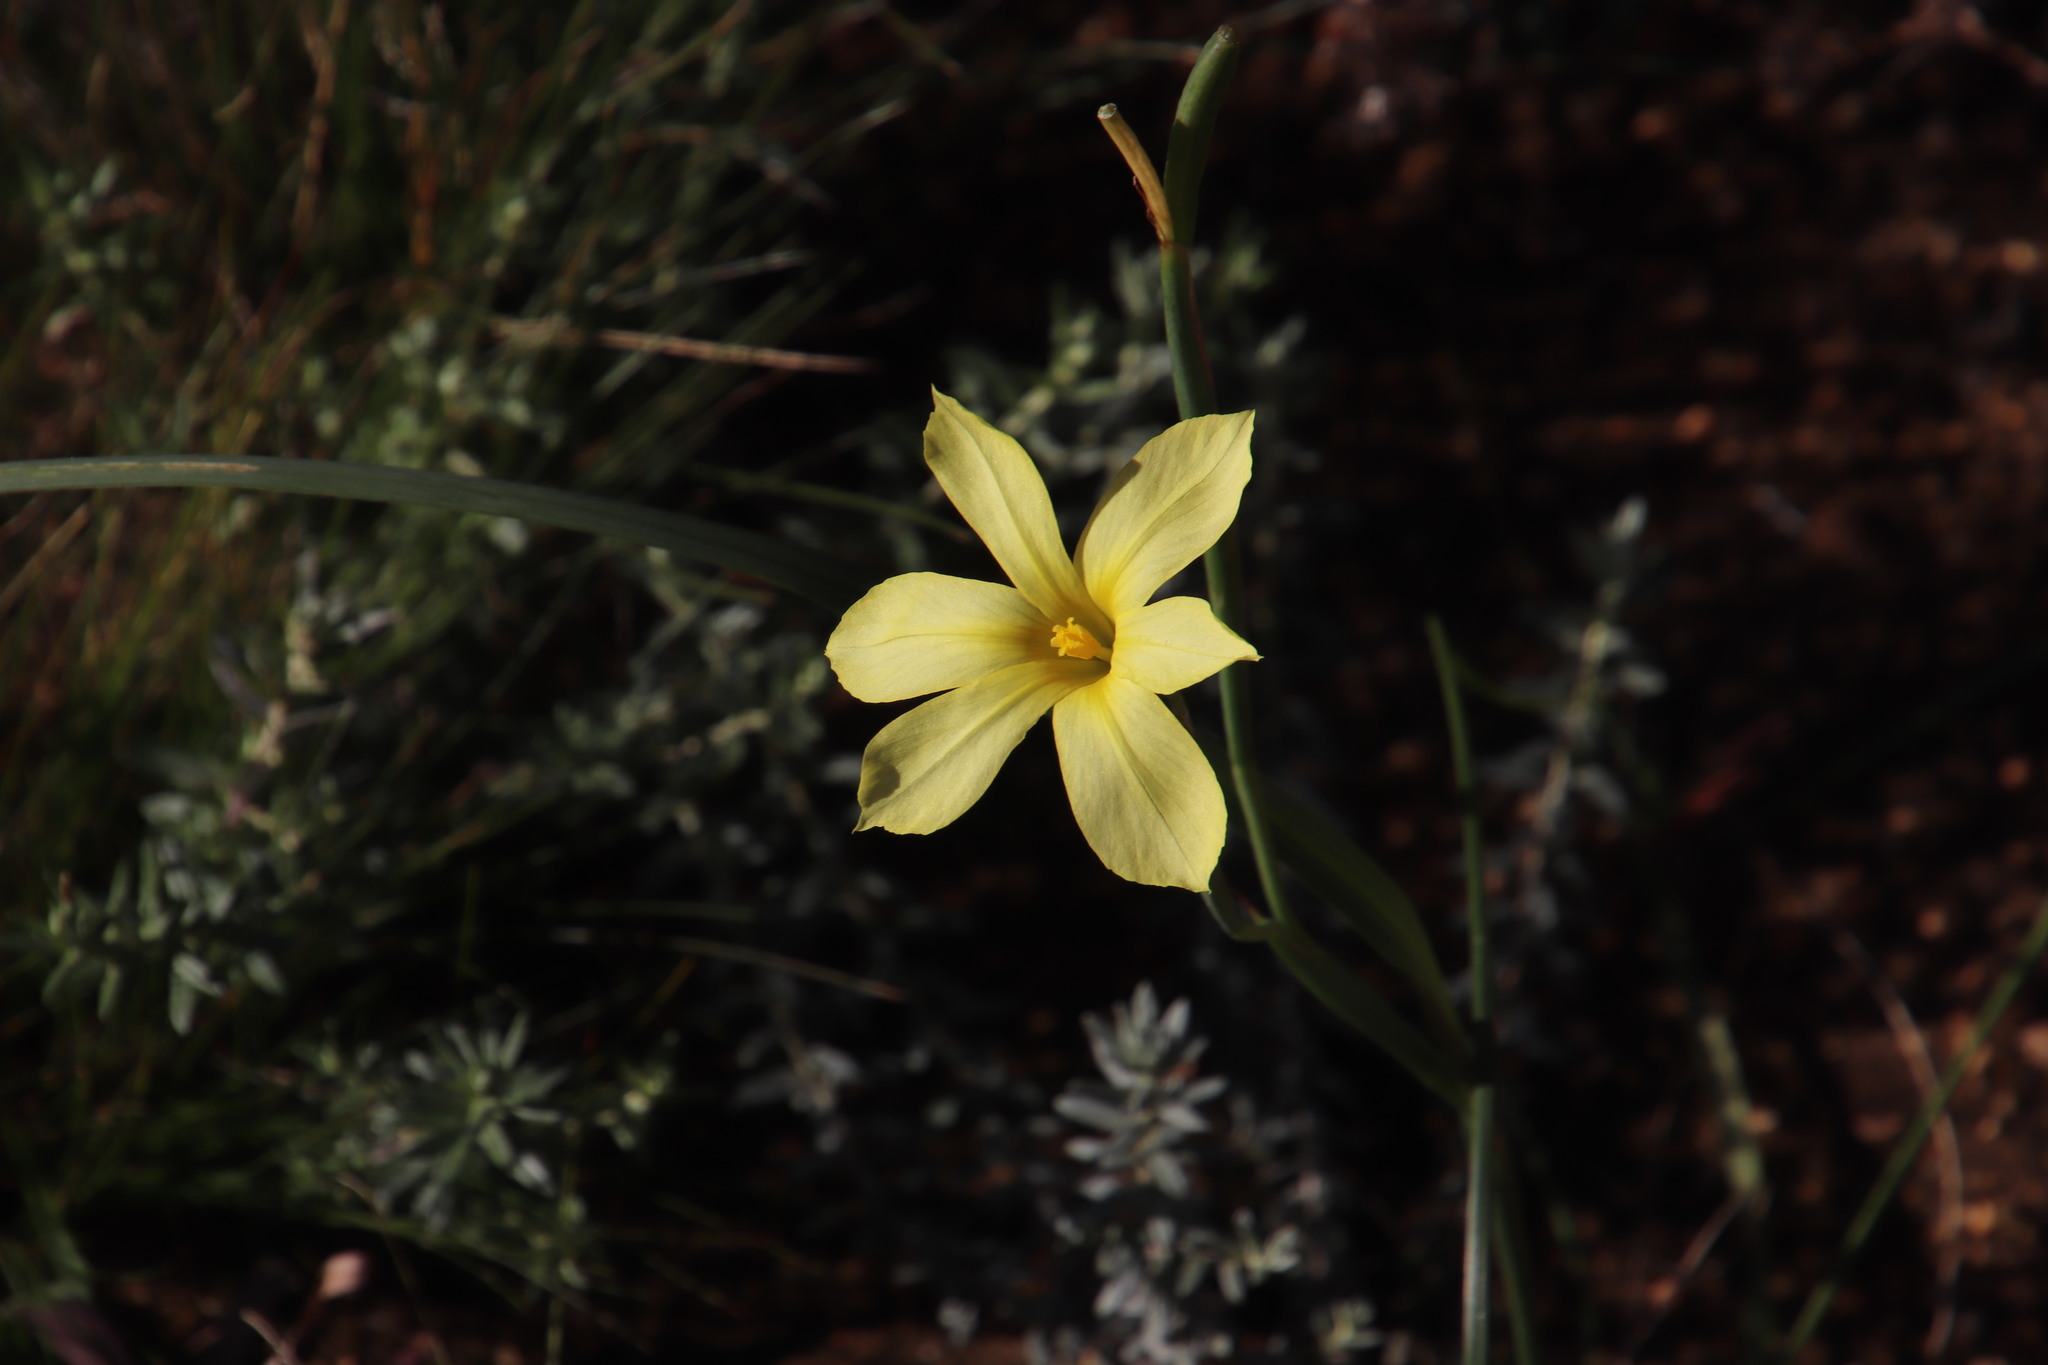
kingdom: Plantae
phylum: Tracheophyta
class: Liliopsida
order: Asparagales
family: Iridaceae
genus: Moraea
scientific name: Moraea collina
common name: Cape-tulip
